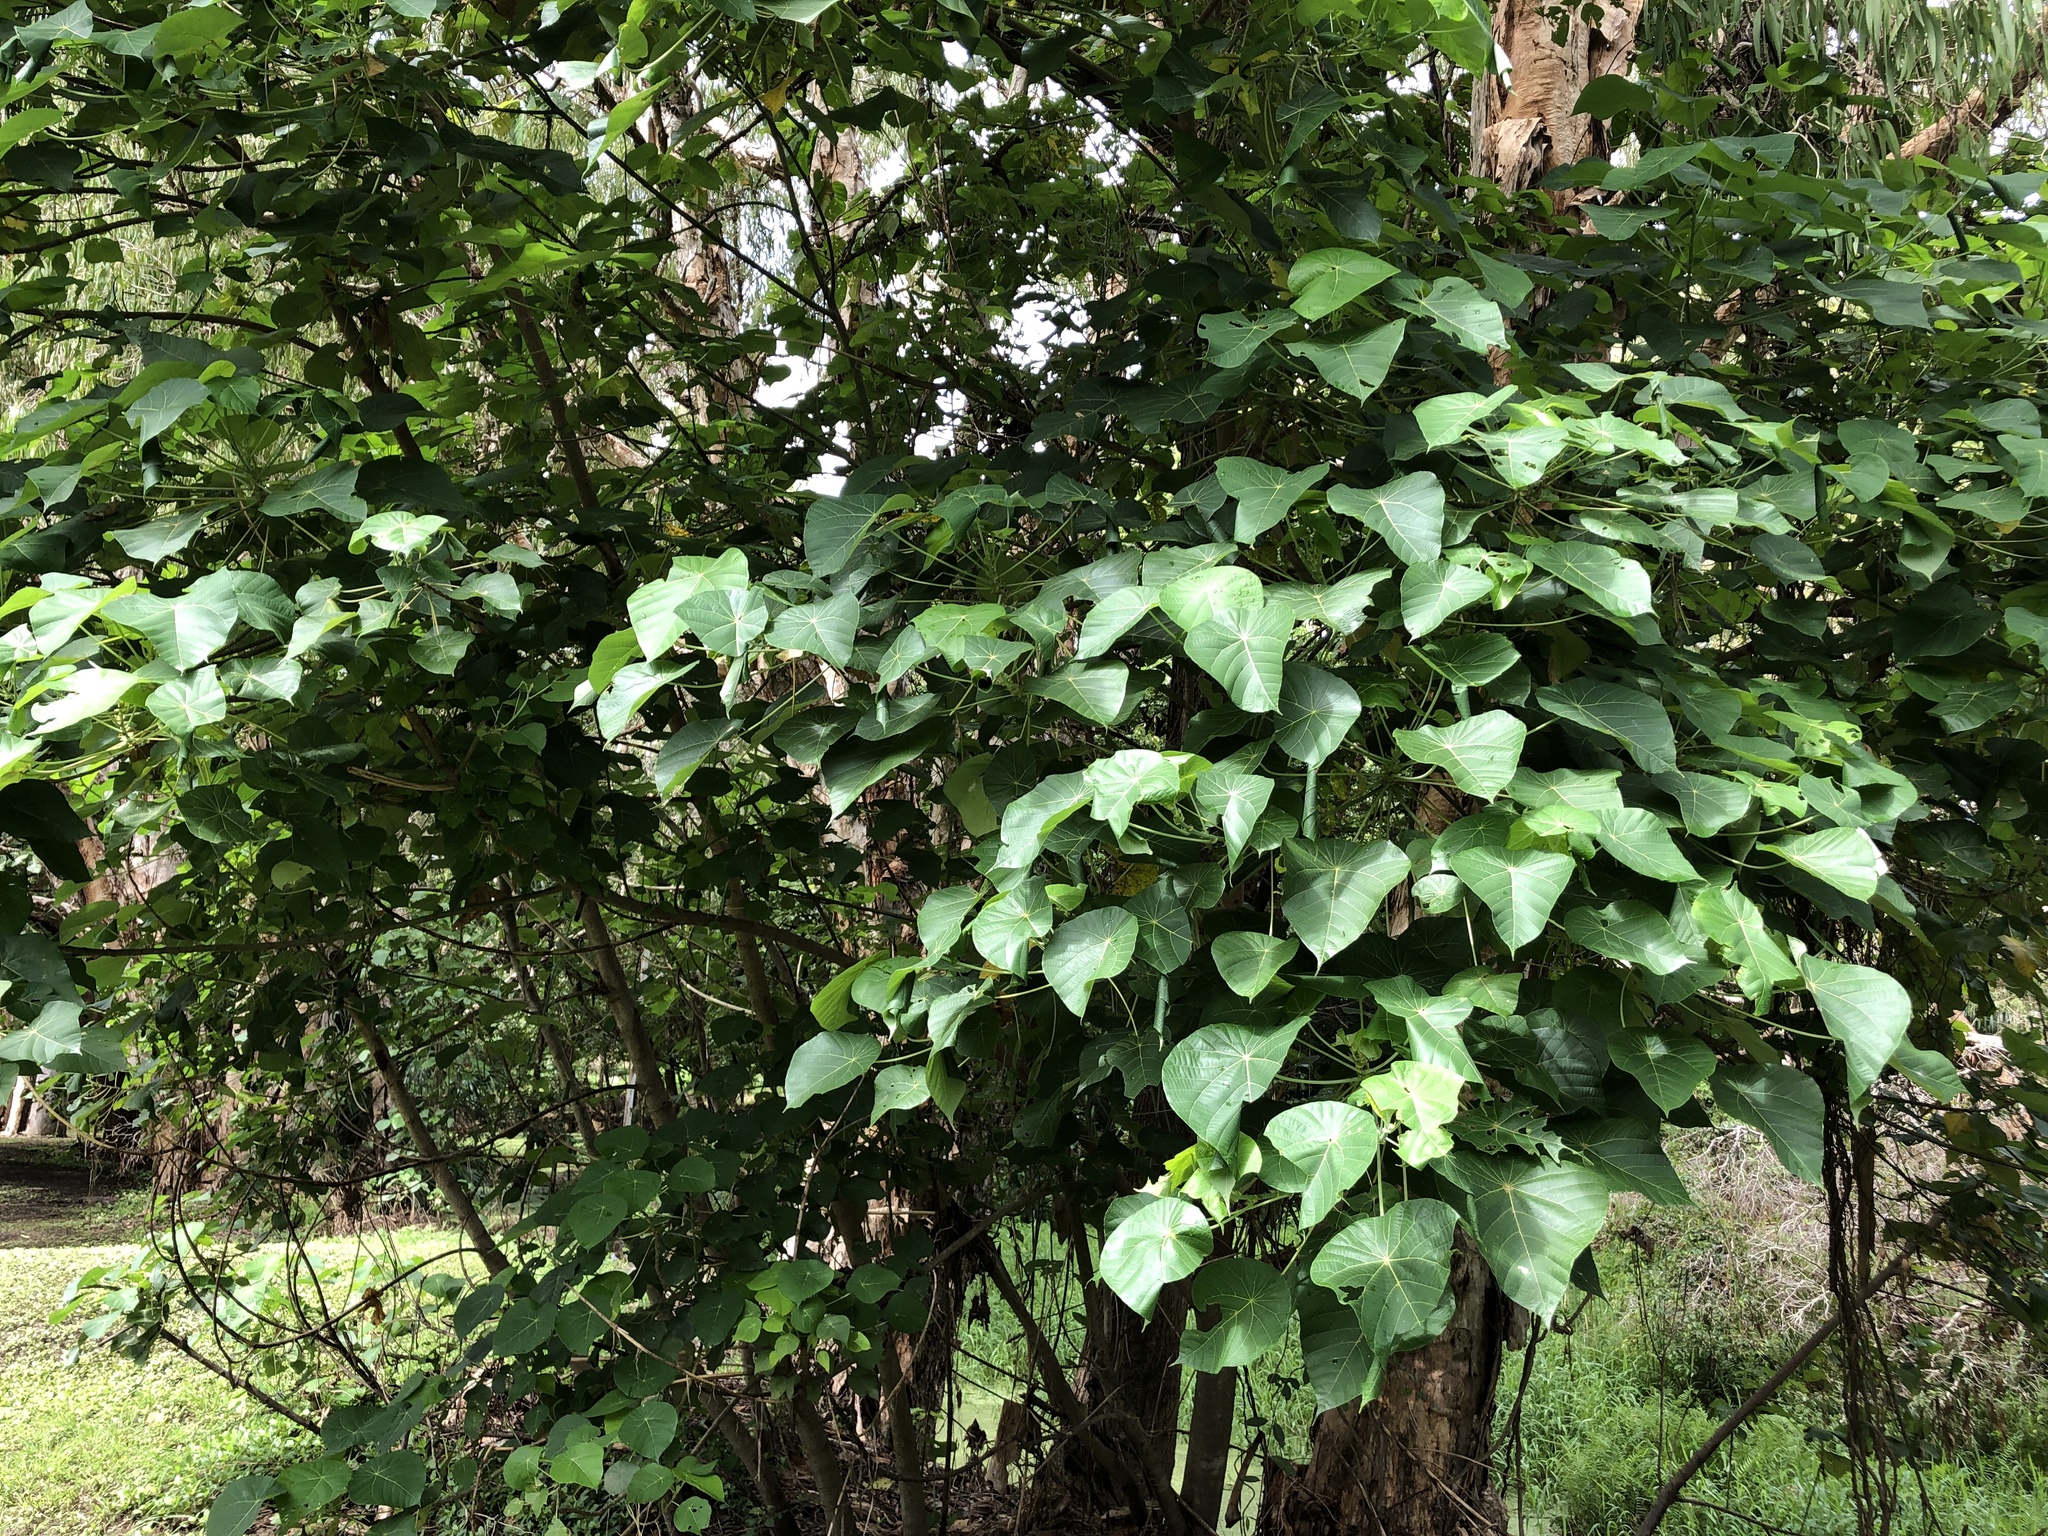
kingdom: Plantae
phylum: Tracheophyta
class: Magnoliopsida
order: Malpighiales
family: Euphorbiaceae
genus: Macaranga
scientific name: Macaranga tanarius
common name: Parasol leaf tree
